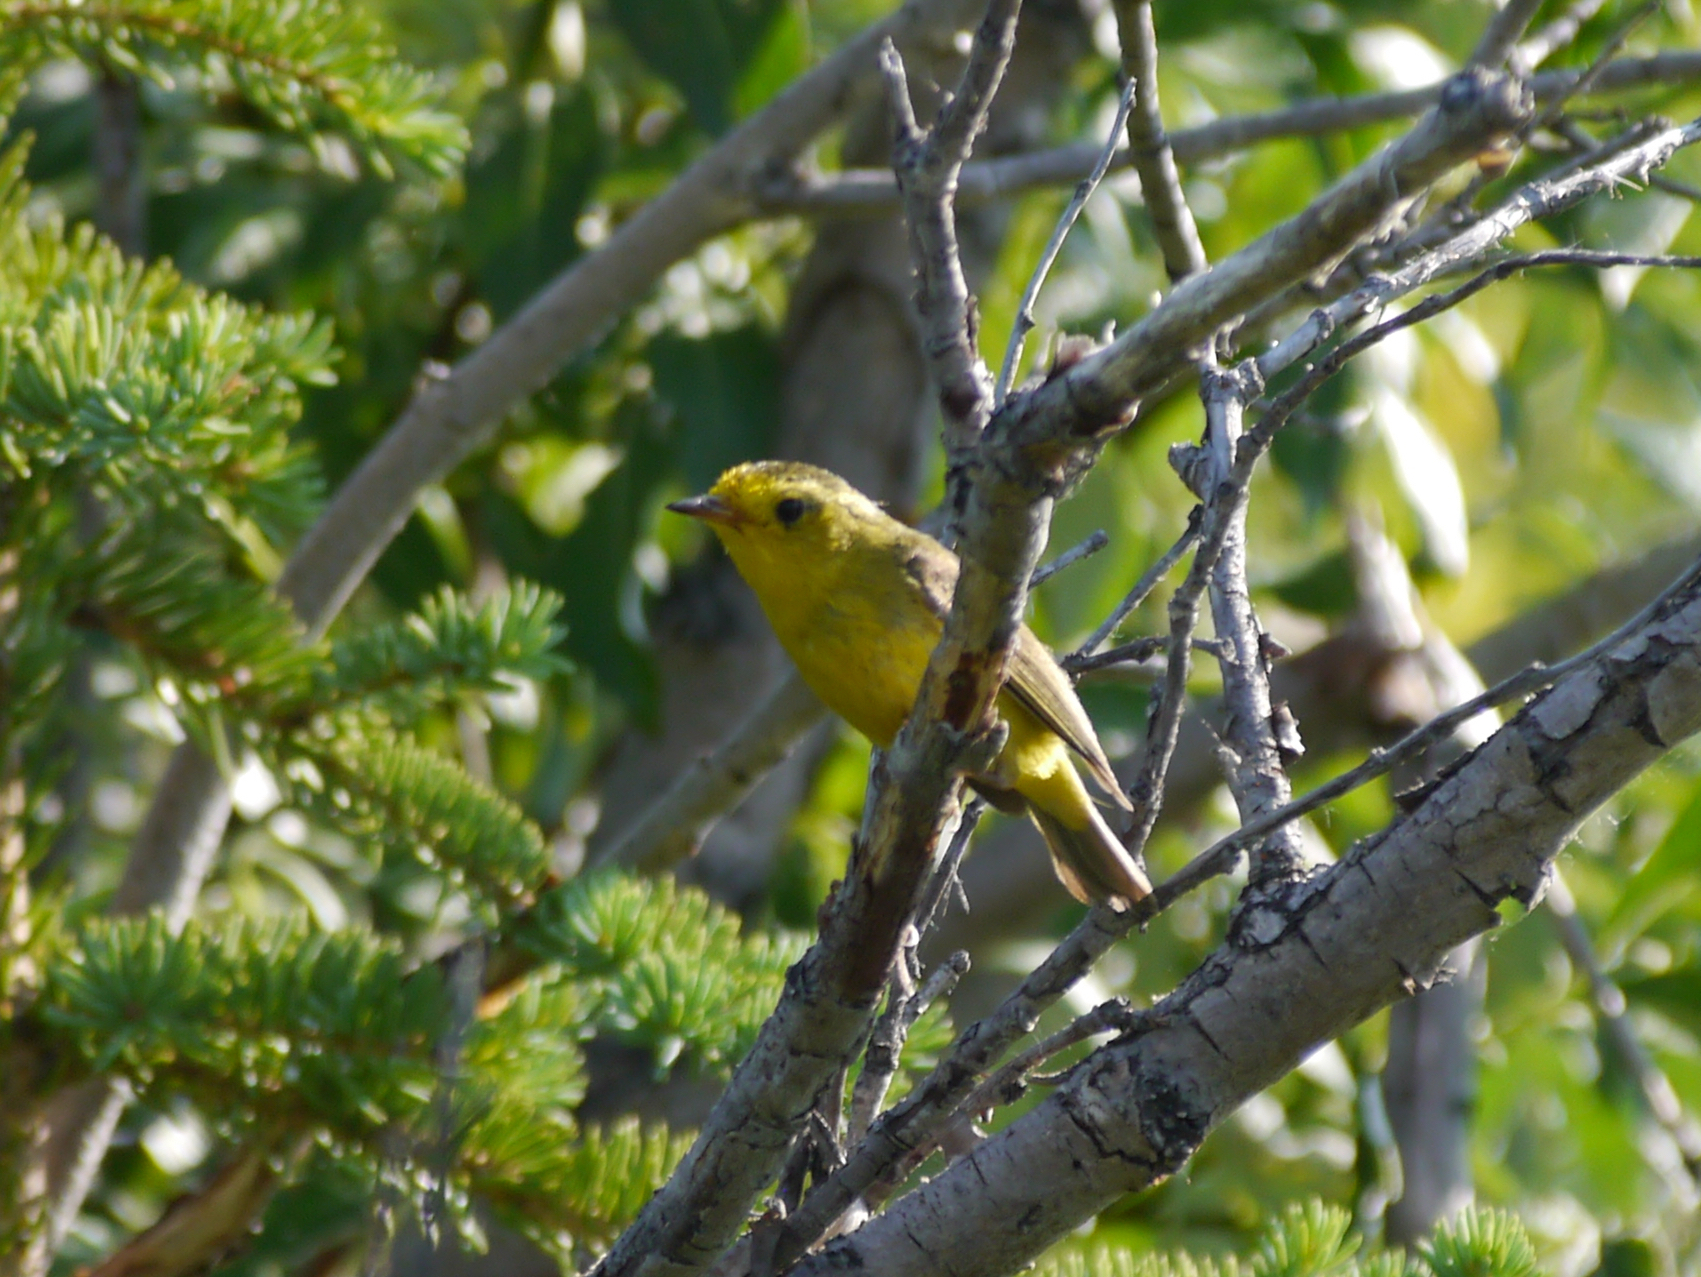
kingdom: Animalia
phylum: Chordata
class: Aves
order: Passeriformes
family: Parulidae
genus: Cardellina
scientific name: Cardellina pusilla
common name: Wilson's warbler
